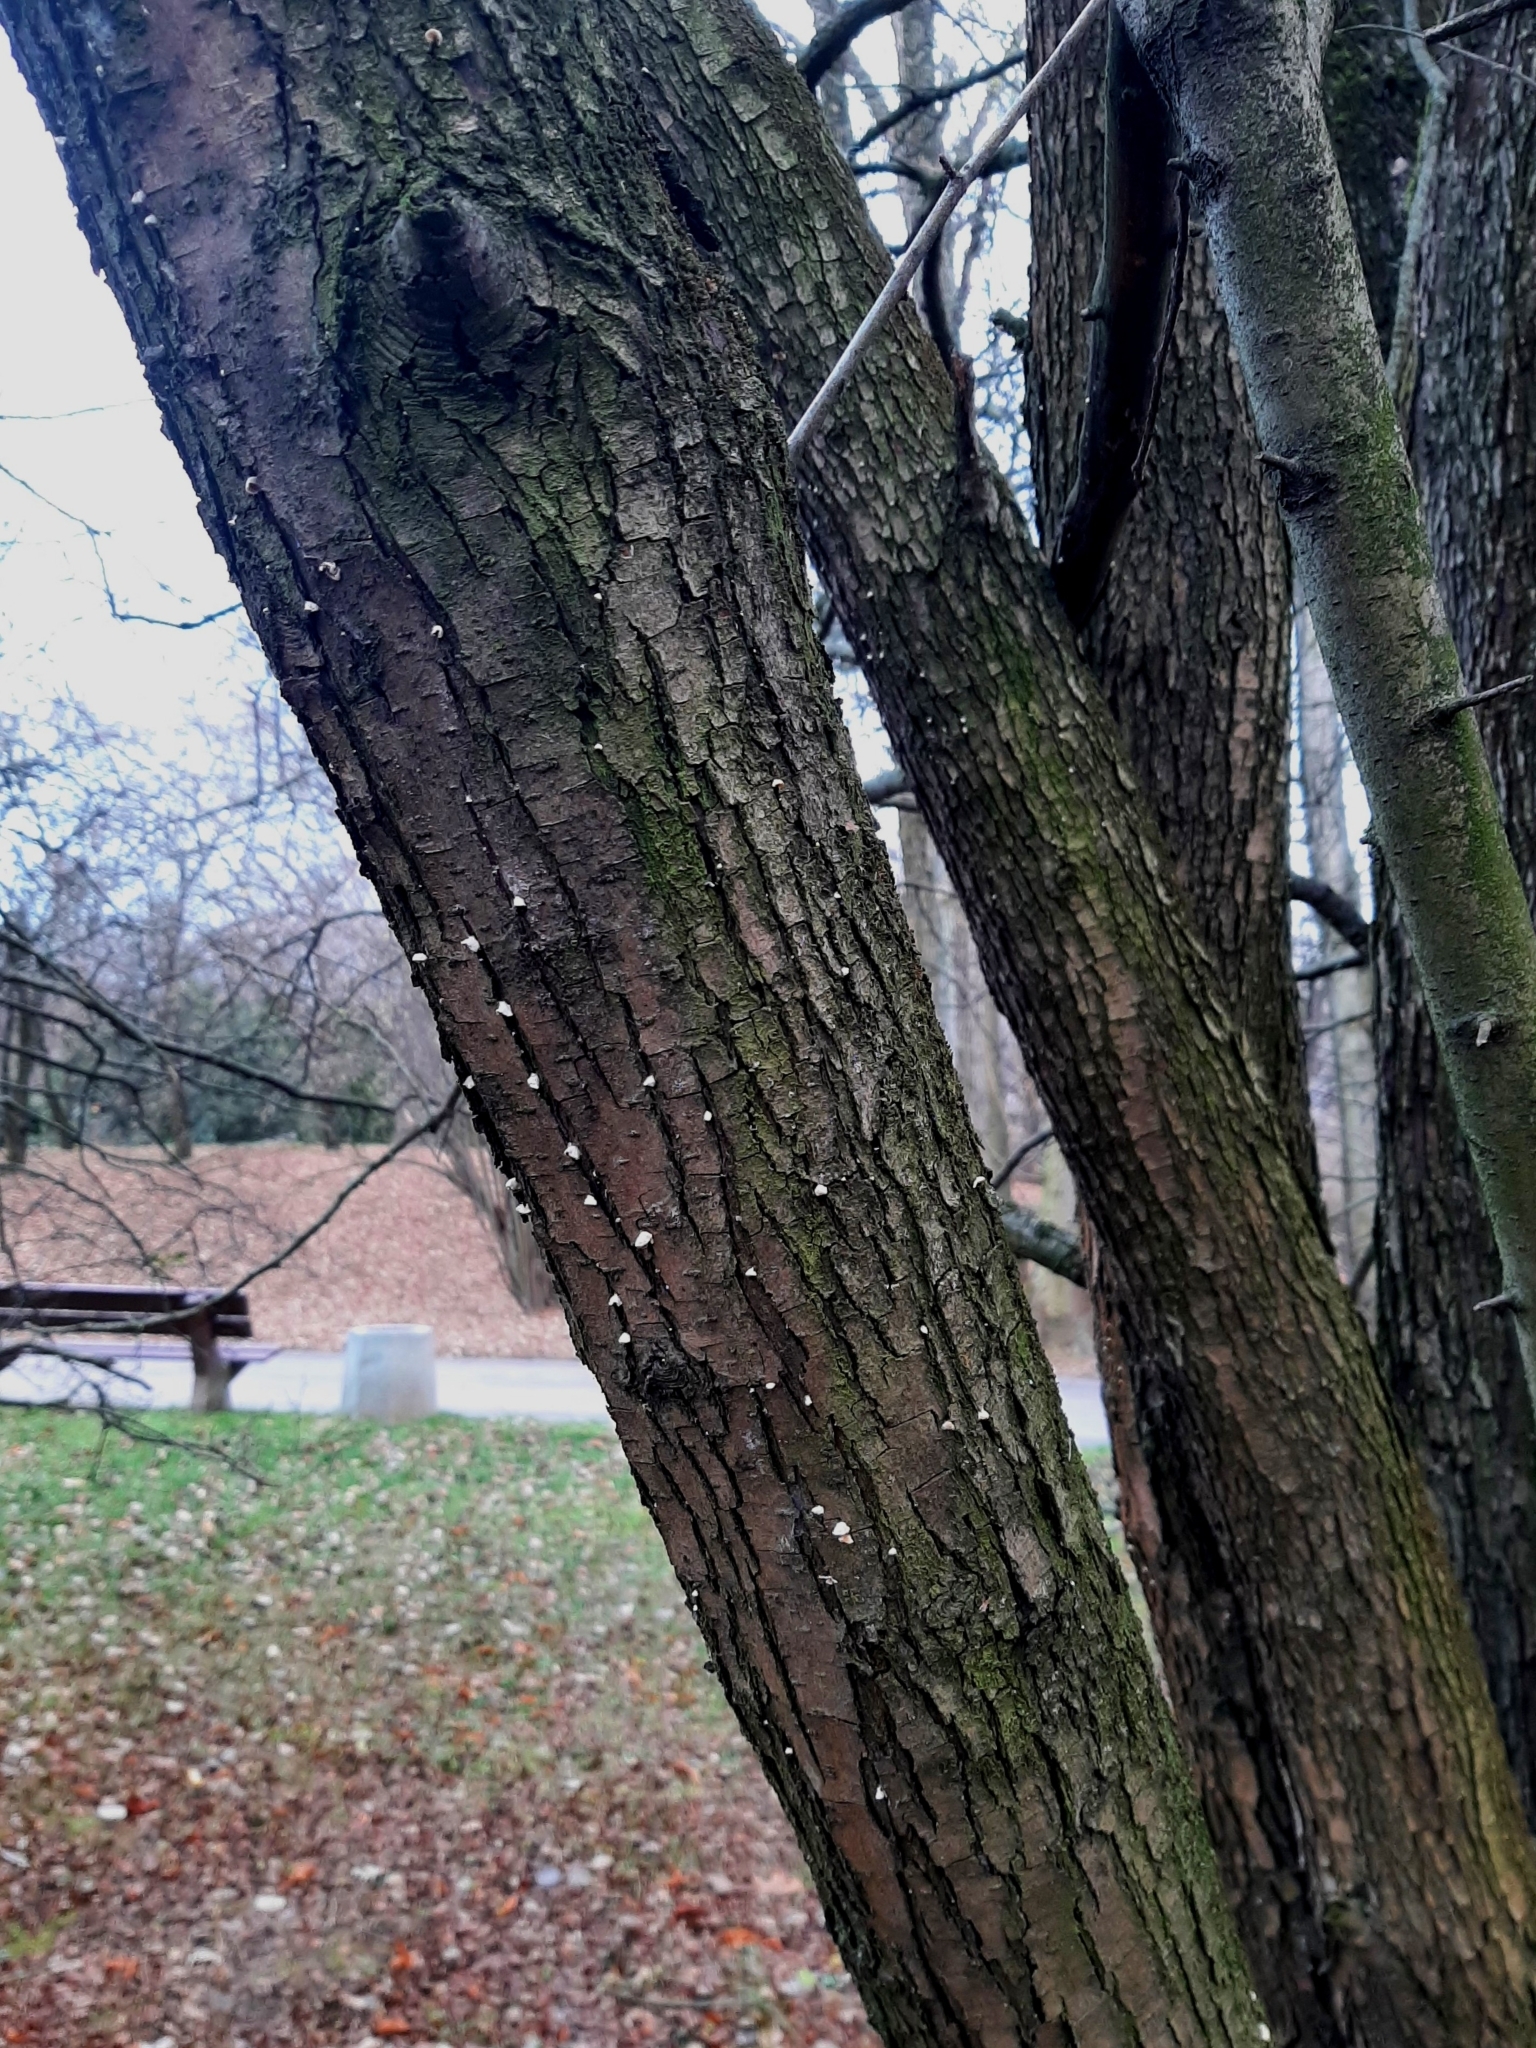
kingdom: Fungi
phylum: Basidiomycota
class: Agaricomycetes
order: Agaricales
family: Schizophyllaceae
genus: Schizophyllum
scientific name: Schizophyllum commune
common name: Common porecrust
